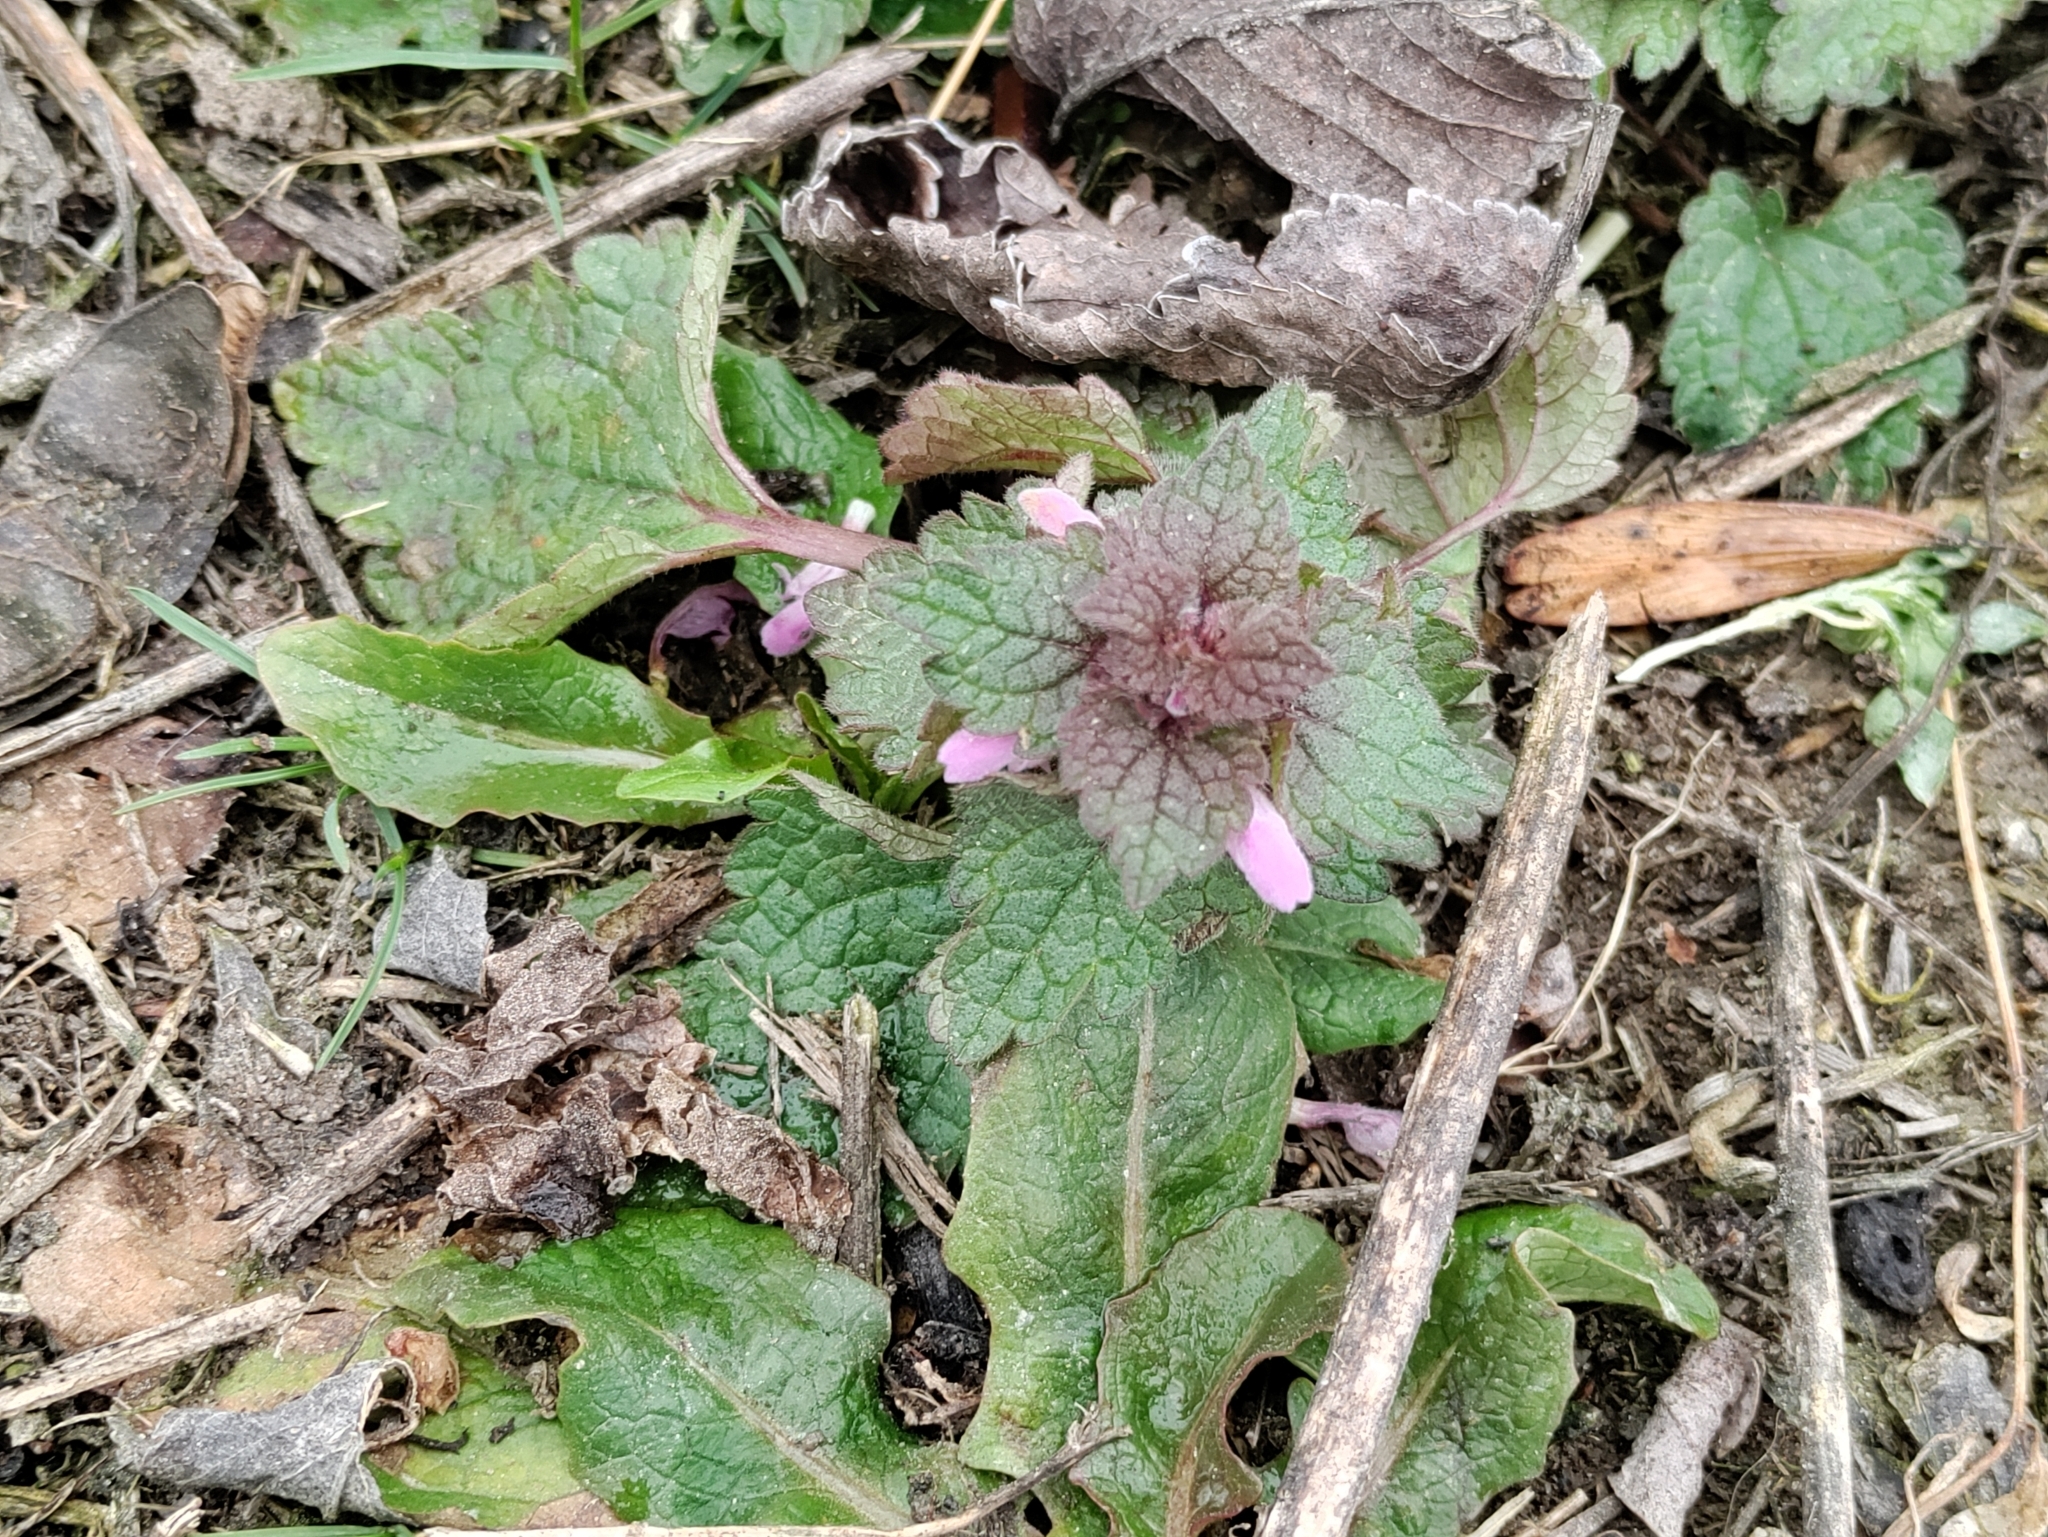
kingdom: Plantae
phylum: Tracheophyta
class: Magnoliopsida
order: Lamiales
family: Lamiaceae
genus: Lamium
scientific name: Lamium purpureum
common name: Red dead-nettle
